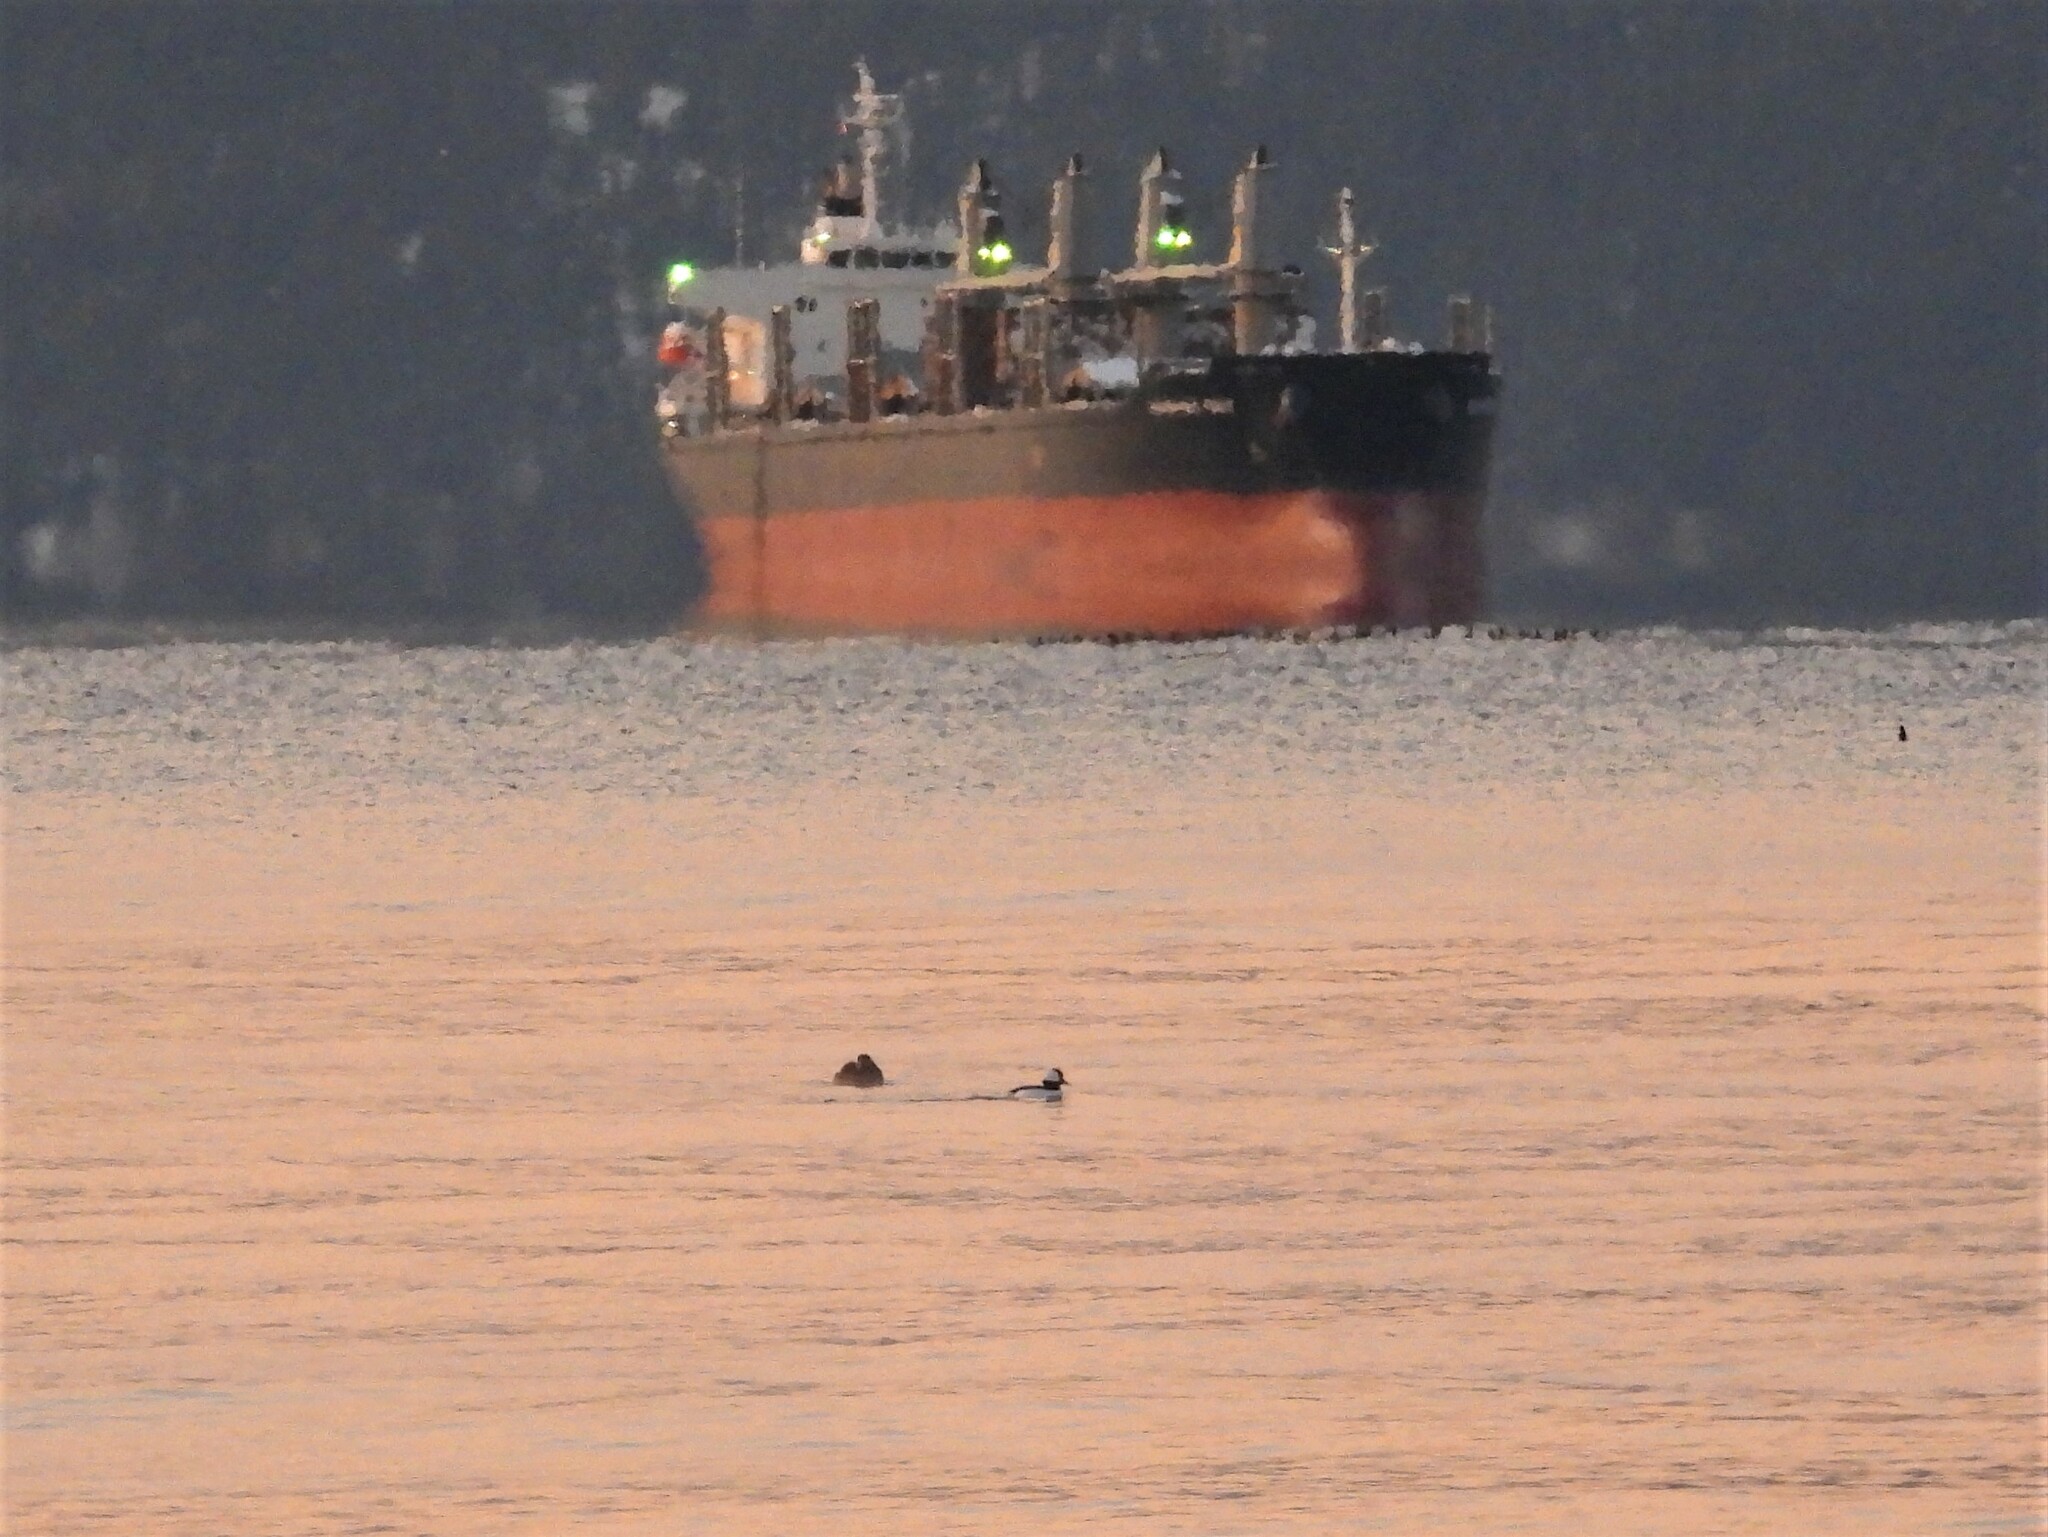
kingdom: Animalia
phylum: Chordata
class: Aves
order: Anseriformes
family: Anatidae
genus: Bucephala
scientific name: Bucephala albeola
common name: Bufflehead
